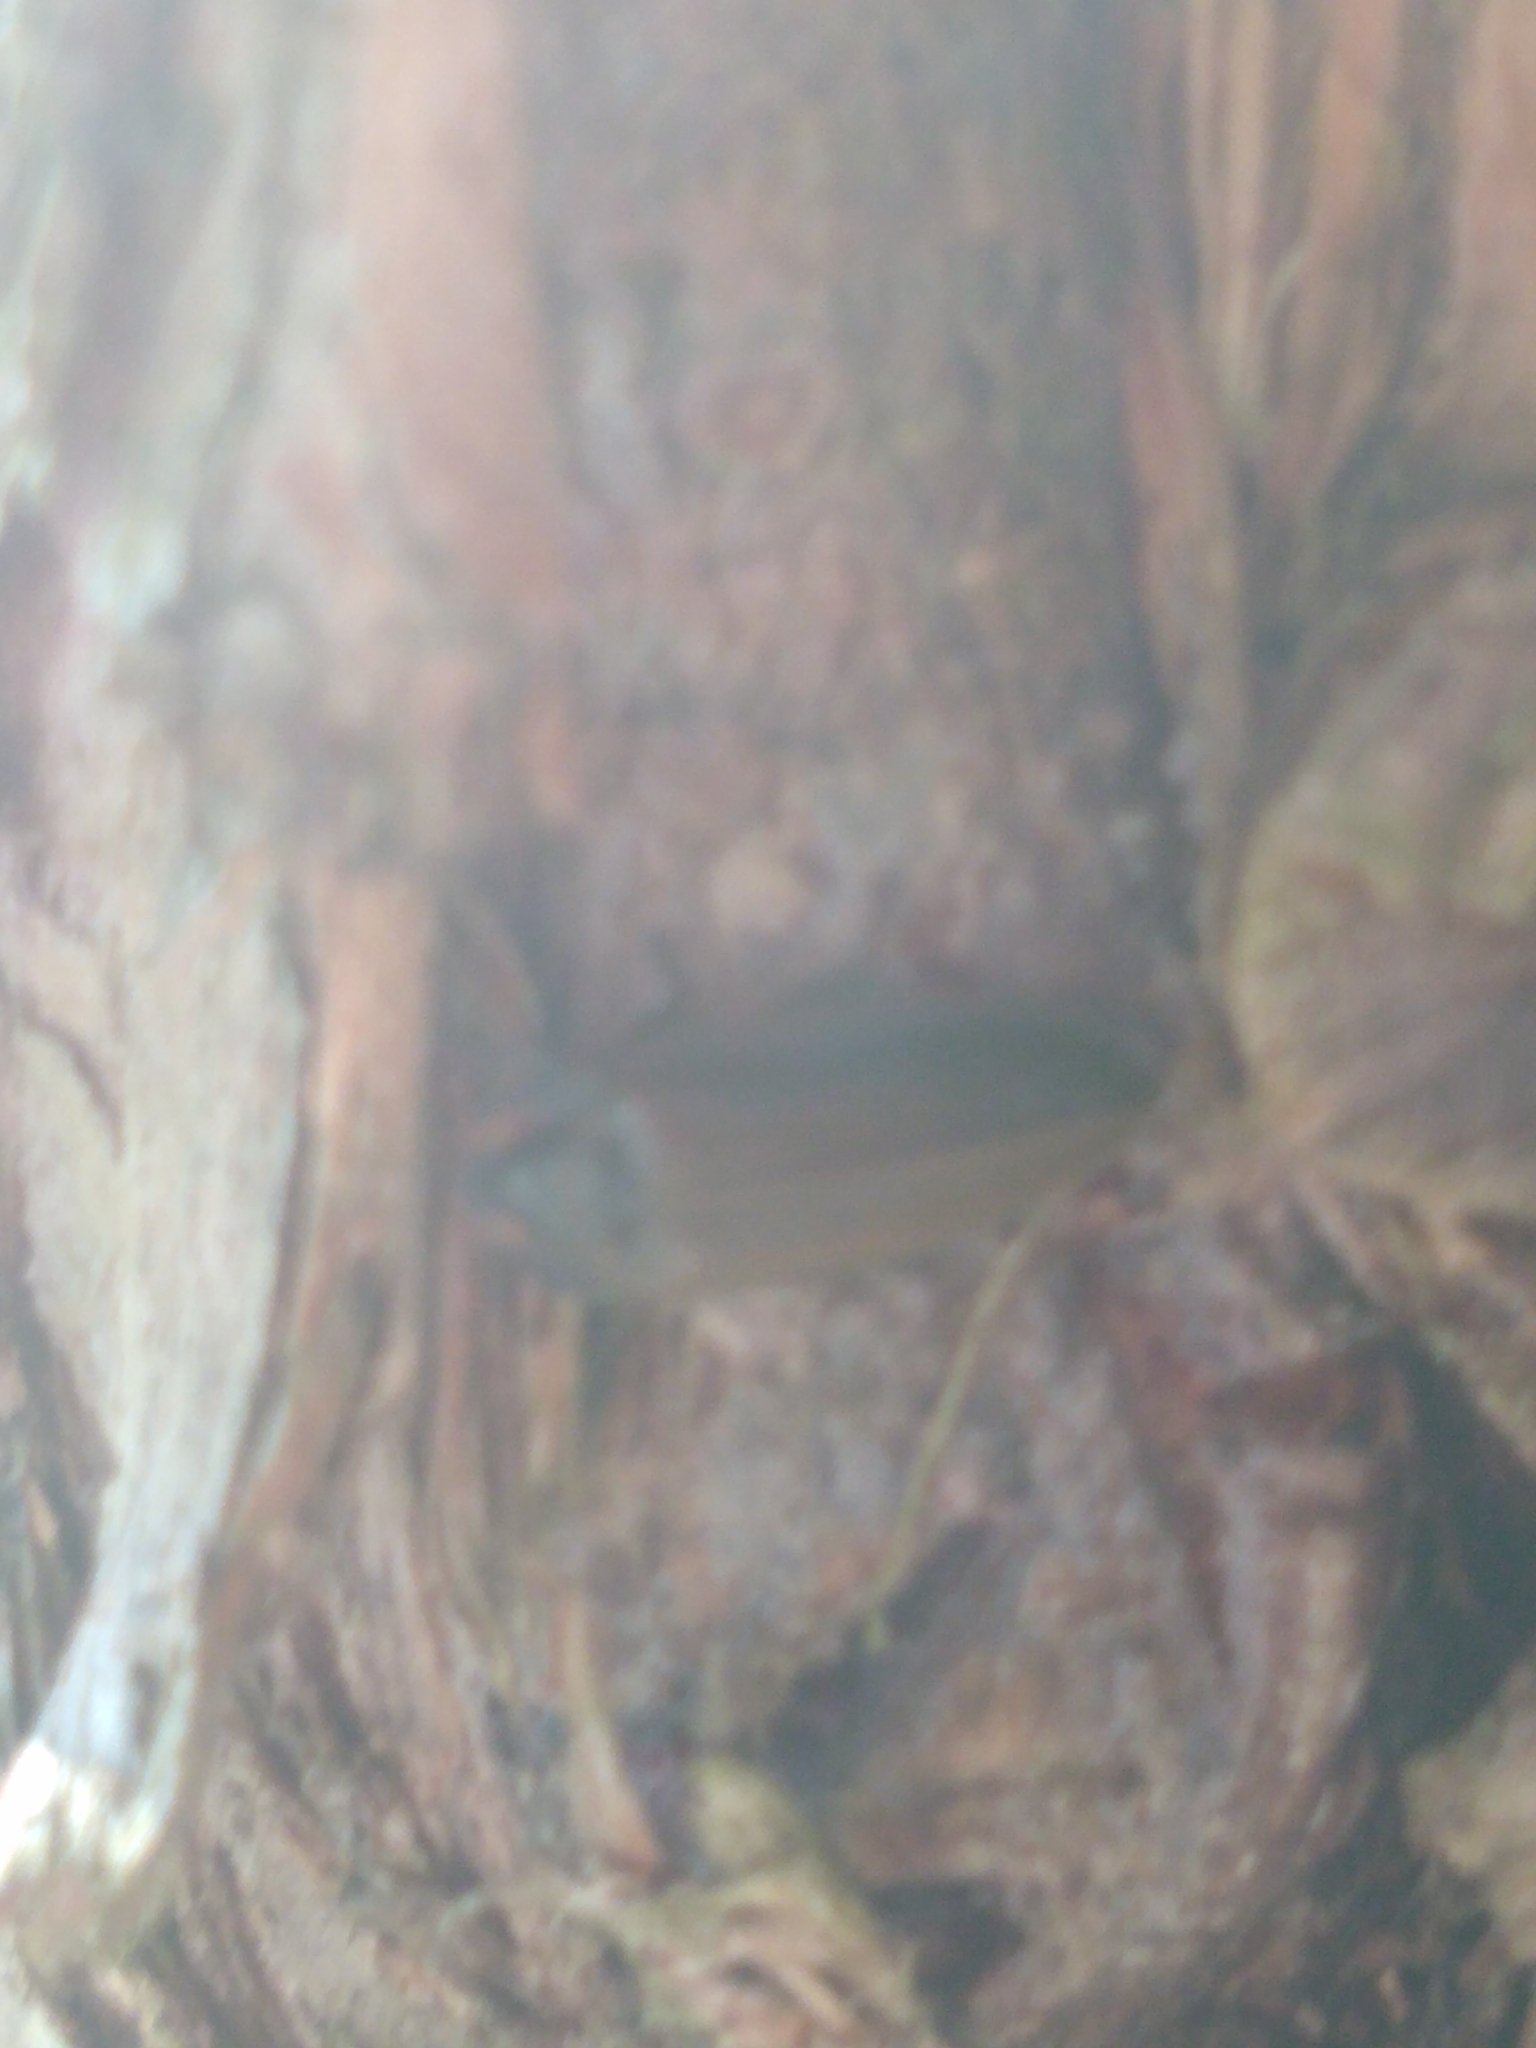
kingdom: Animalia
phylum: Arthropoda
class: Insecta
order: Coleoptera
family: Lampyridae
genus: Photinus
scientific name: Photinus corrusca
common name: Winter firefly
